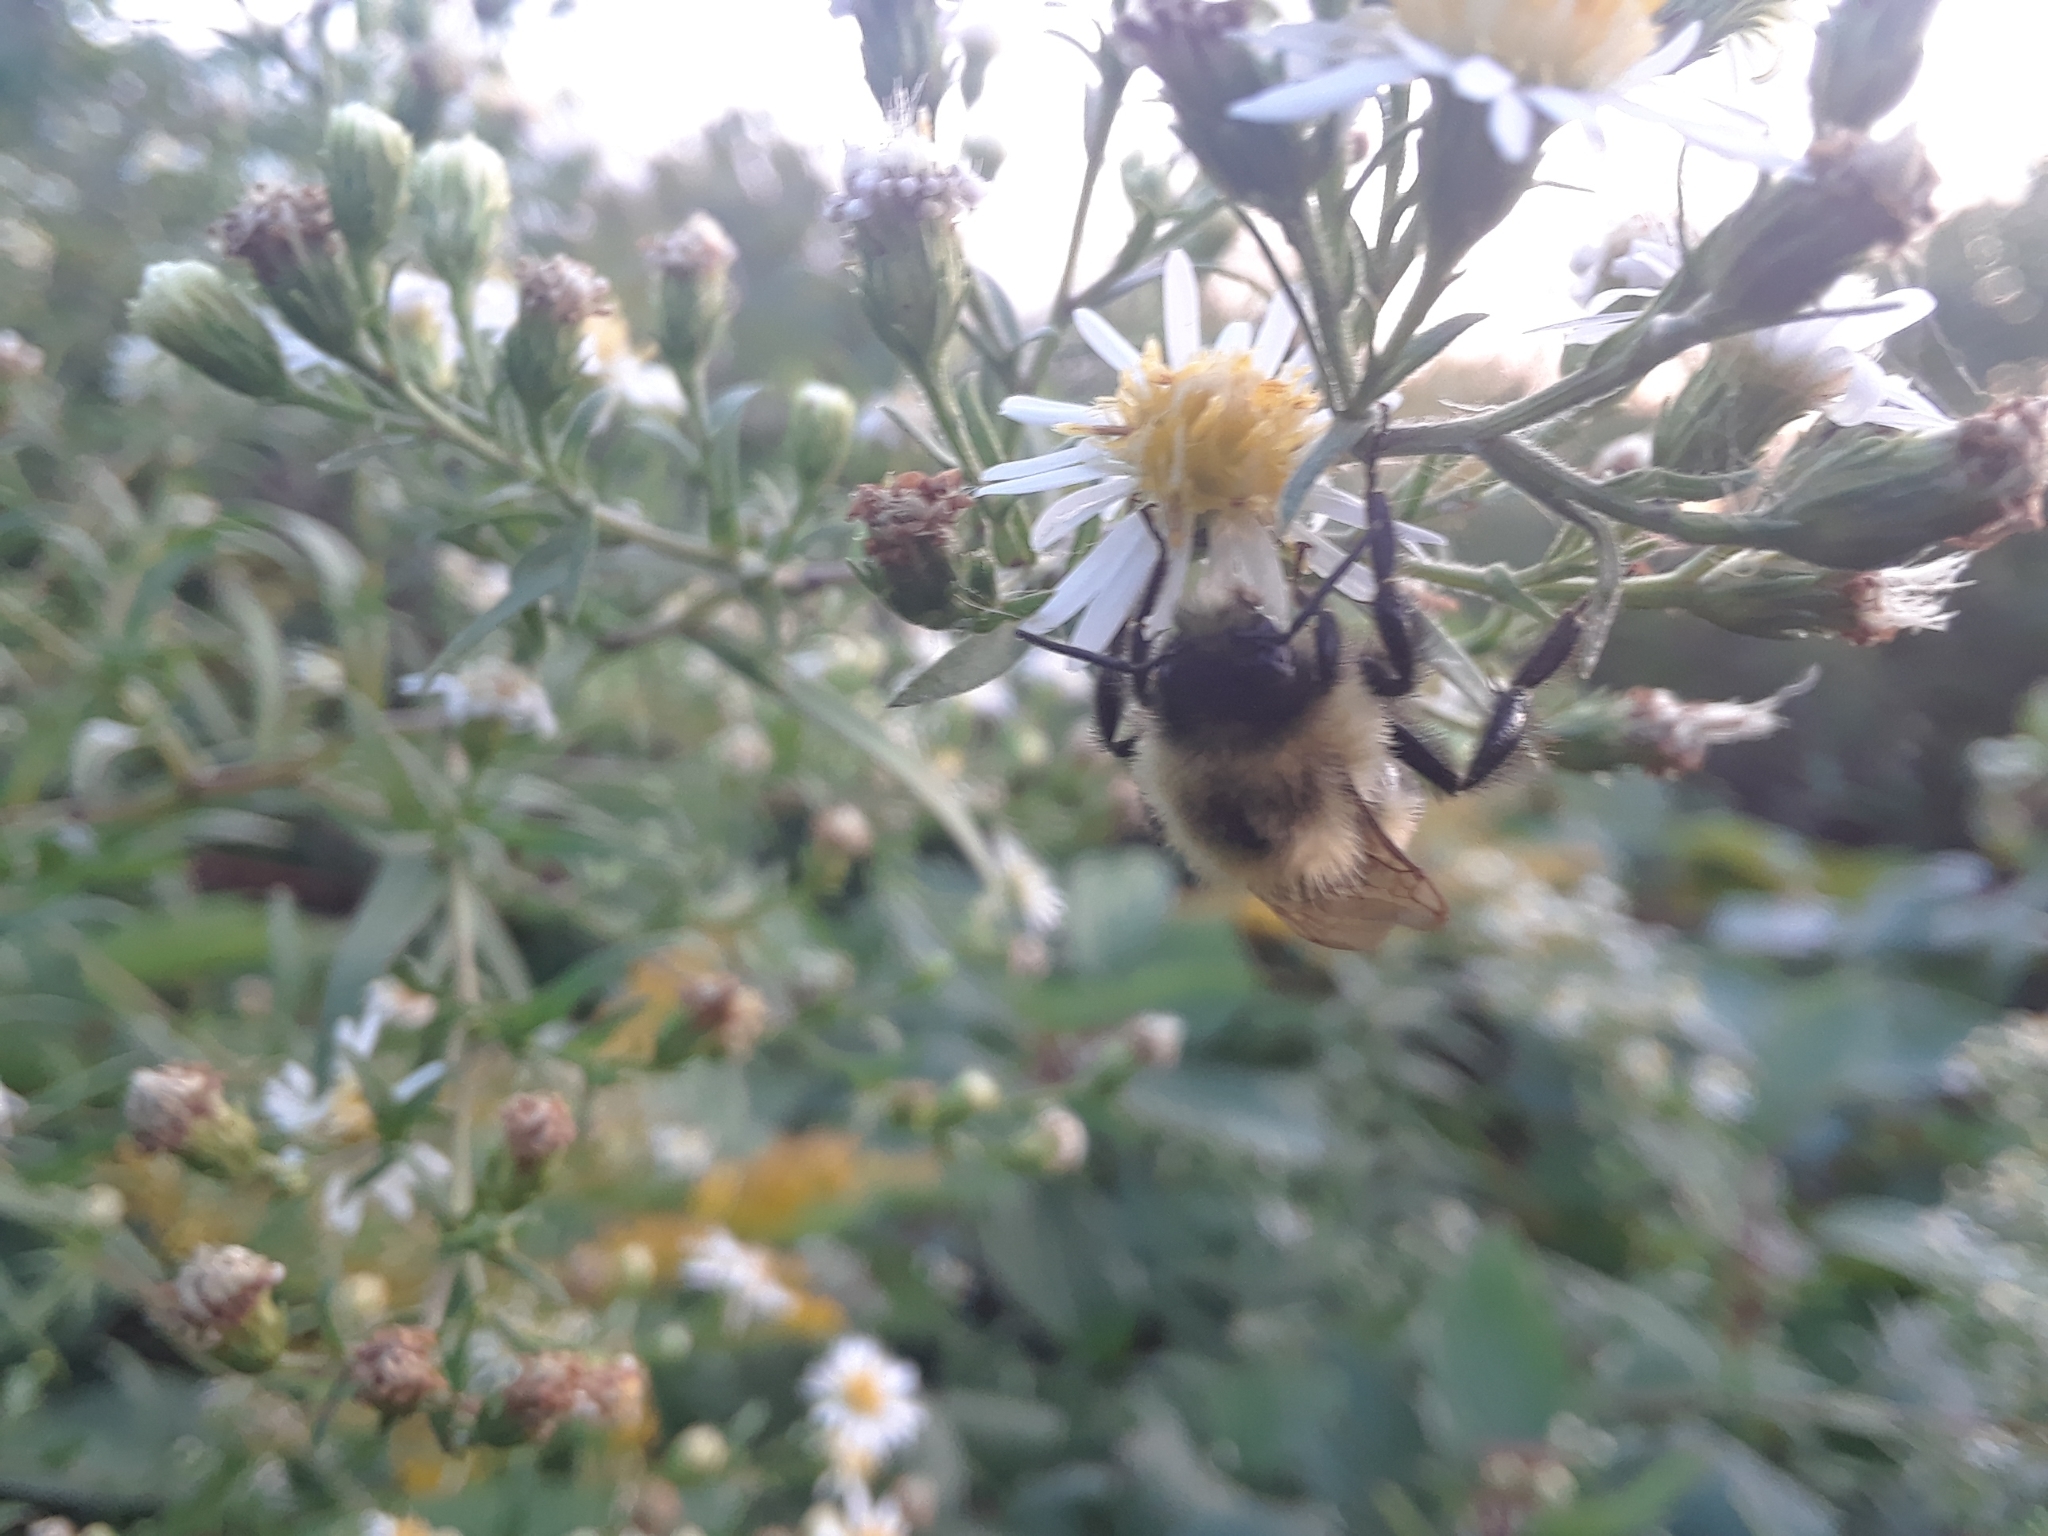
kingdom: Animalia
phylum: Arthropoda
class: Insecta
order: Hymenoptera
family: Apidae
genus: Bombus
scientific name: Bombus impatiens
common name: Common eastern bumble bee
